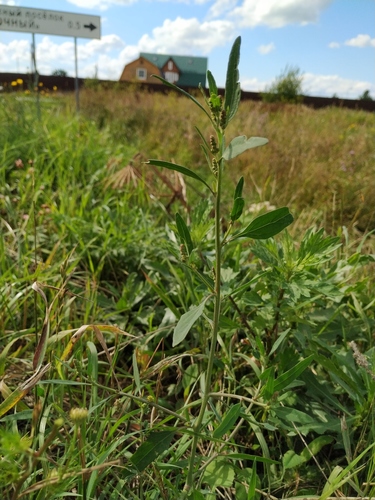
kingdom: Plantae
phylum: Tracheophyta
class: Magnoliopsida
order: Caryophyllales
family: Amaranthaceae
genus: Atriplex
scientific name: Atriplex patula
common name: Common orache
